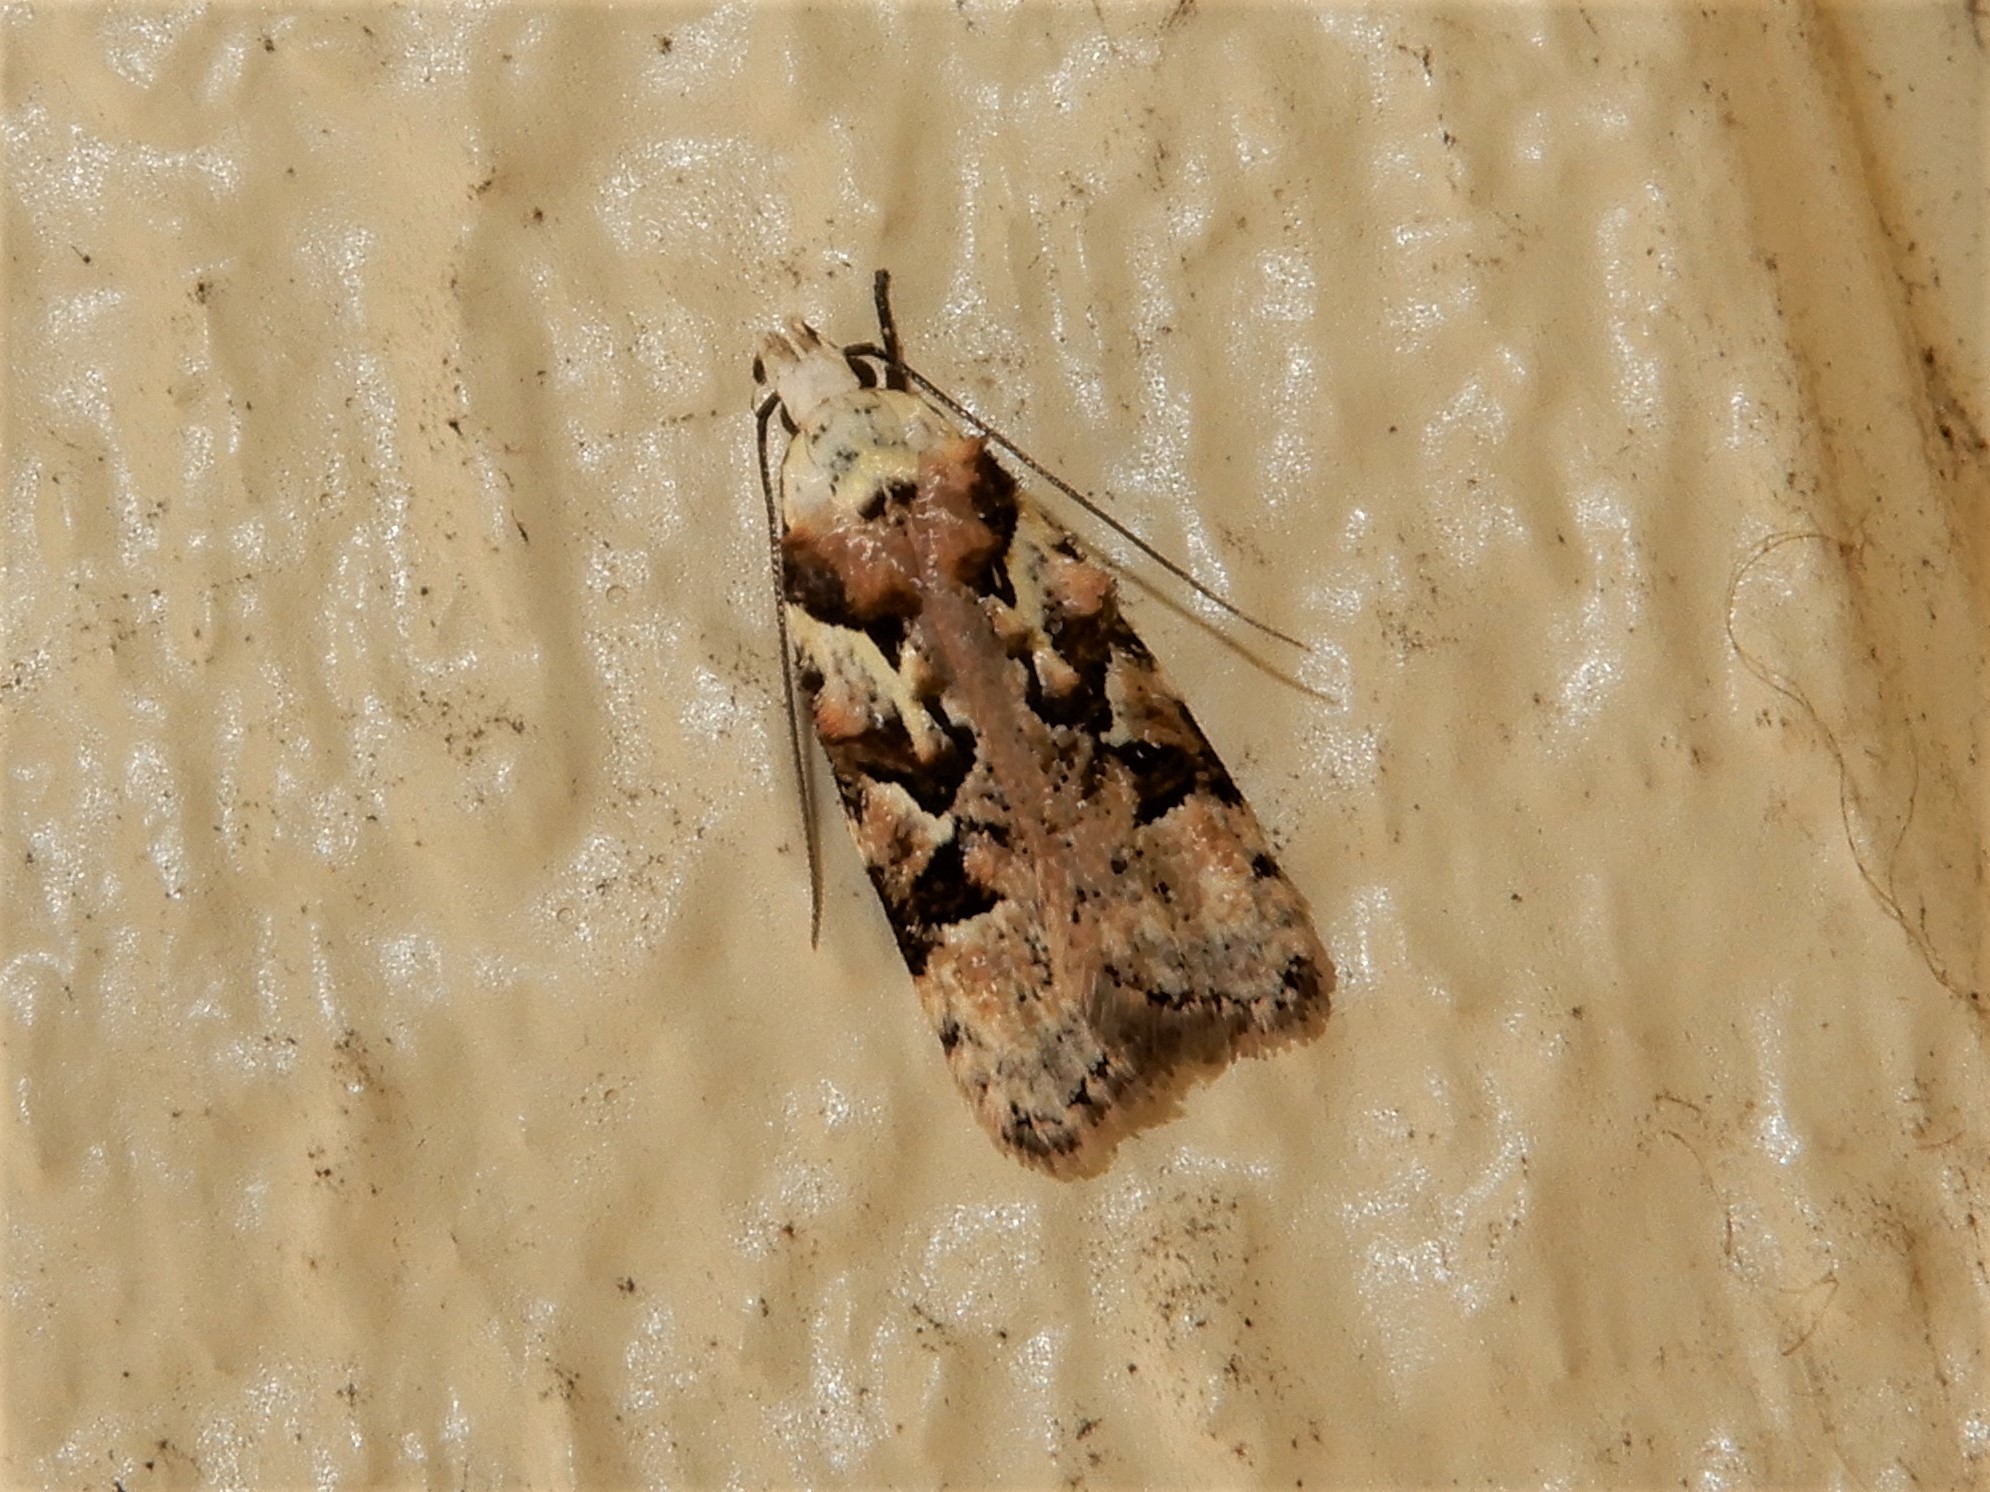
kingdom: Animalia
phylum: Arthropoda
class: Insecta
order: Lepidoptera
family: Oecophoridae
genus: Izatha
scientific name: Izatha epiphanes
